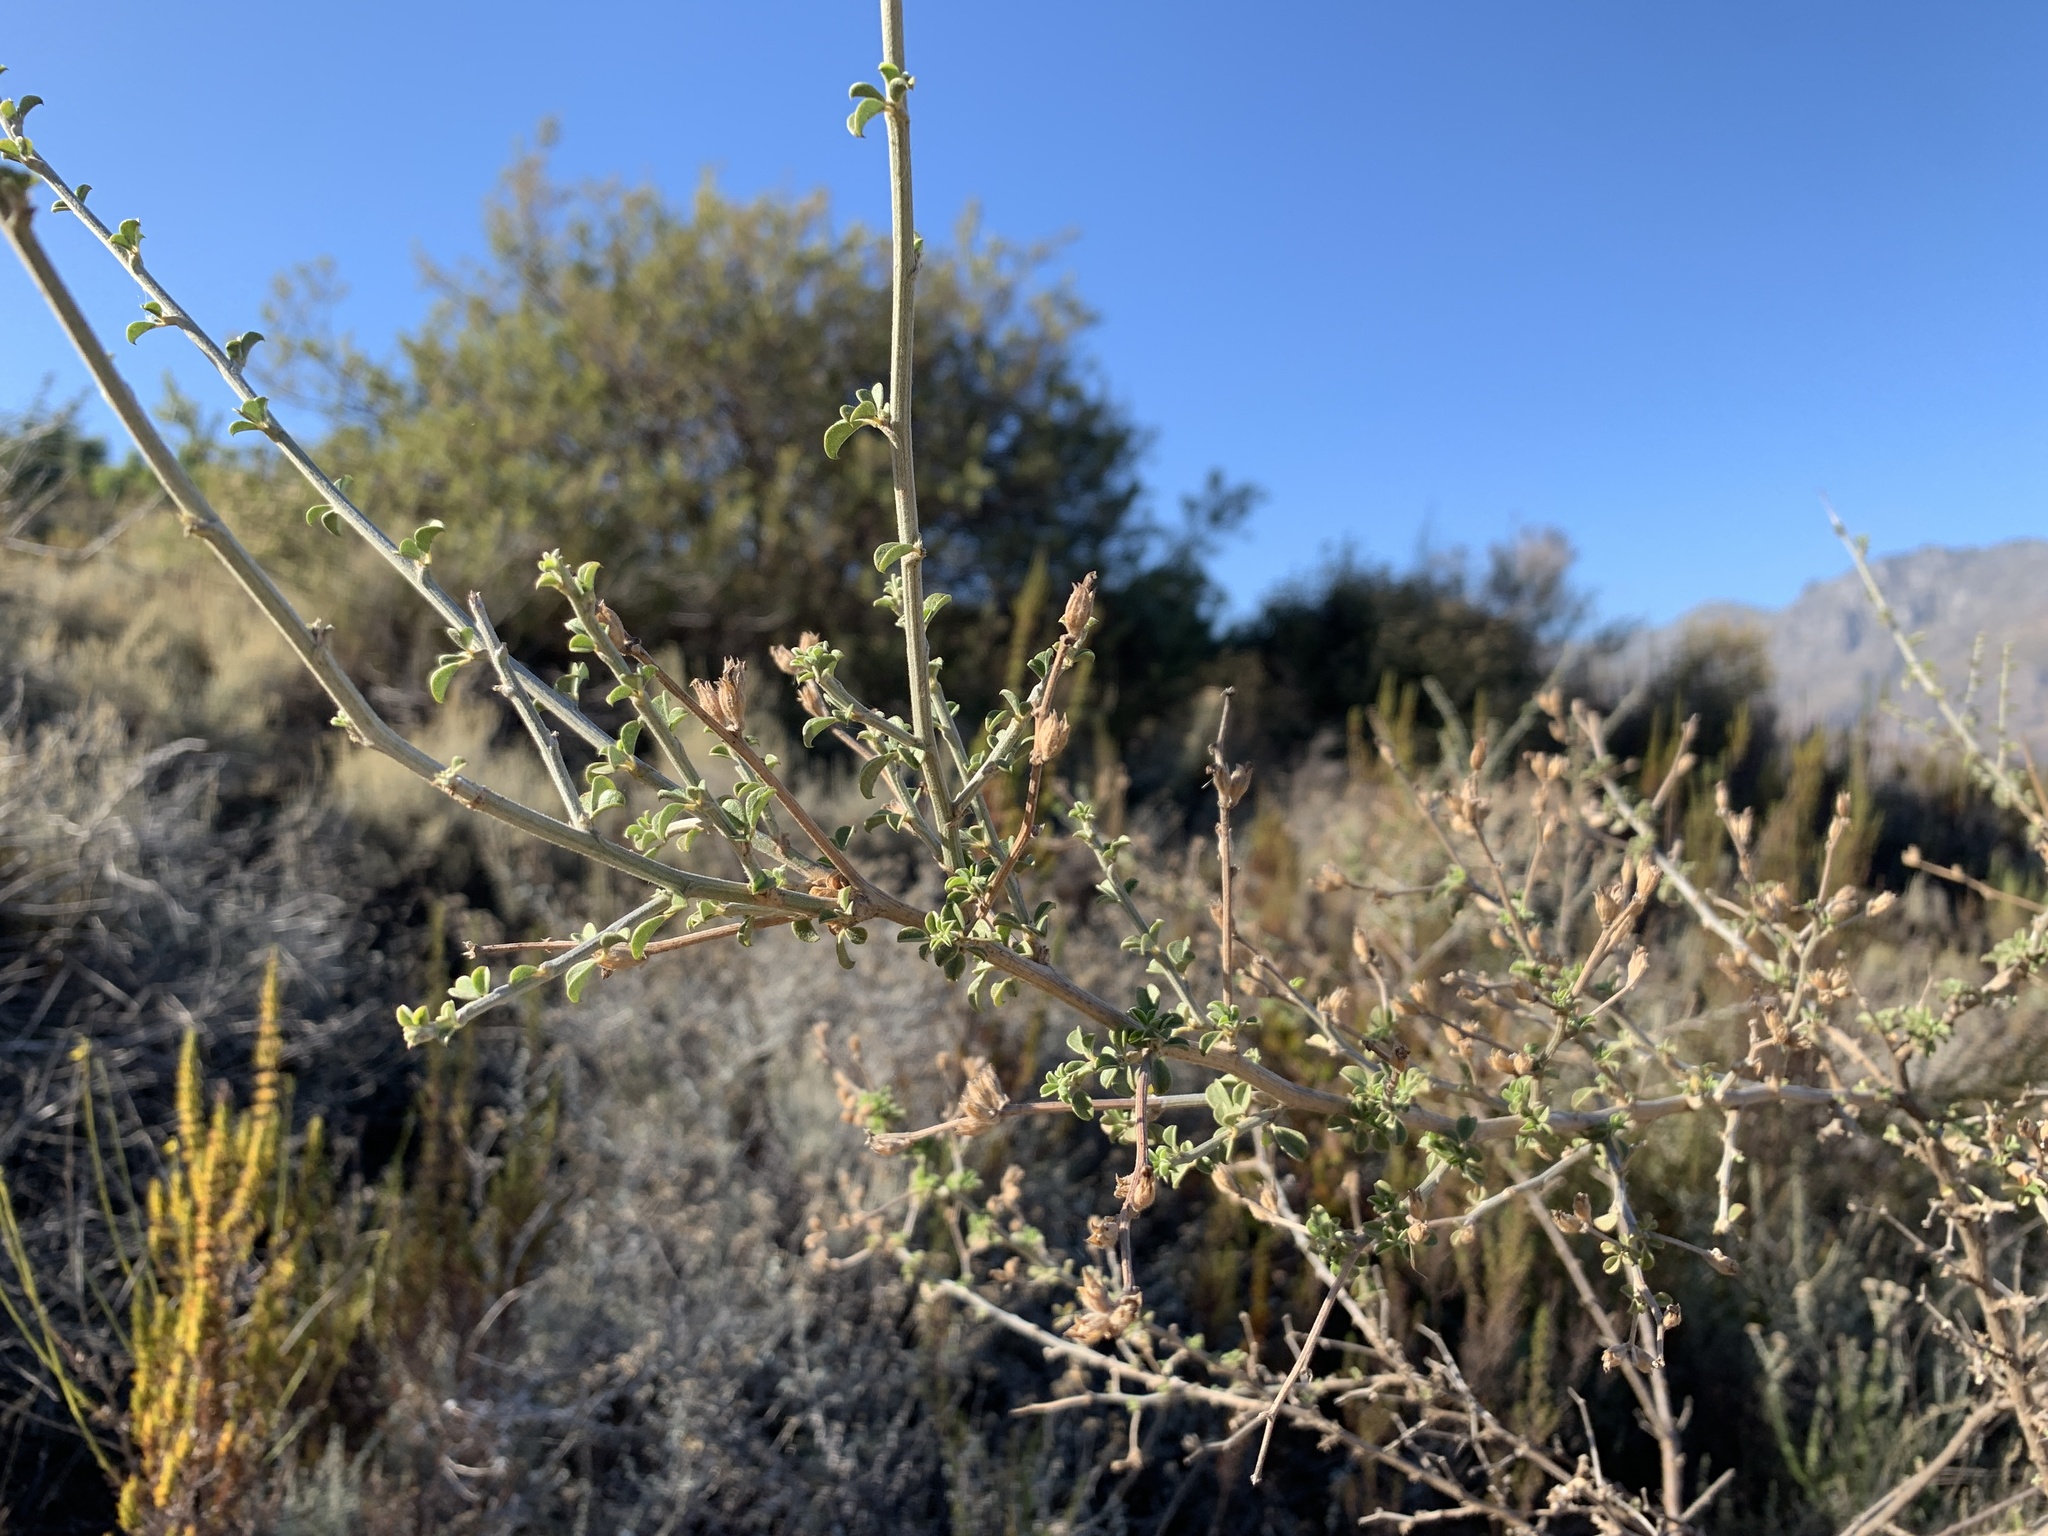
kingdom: Plantae
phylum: Tracheophyta
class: Magnoliopsida
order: Fabales
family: Fabaceae
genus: Psoralea
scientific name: Psoralea hirta
